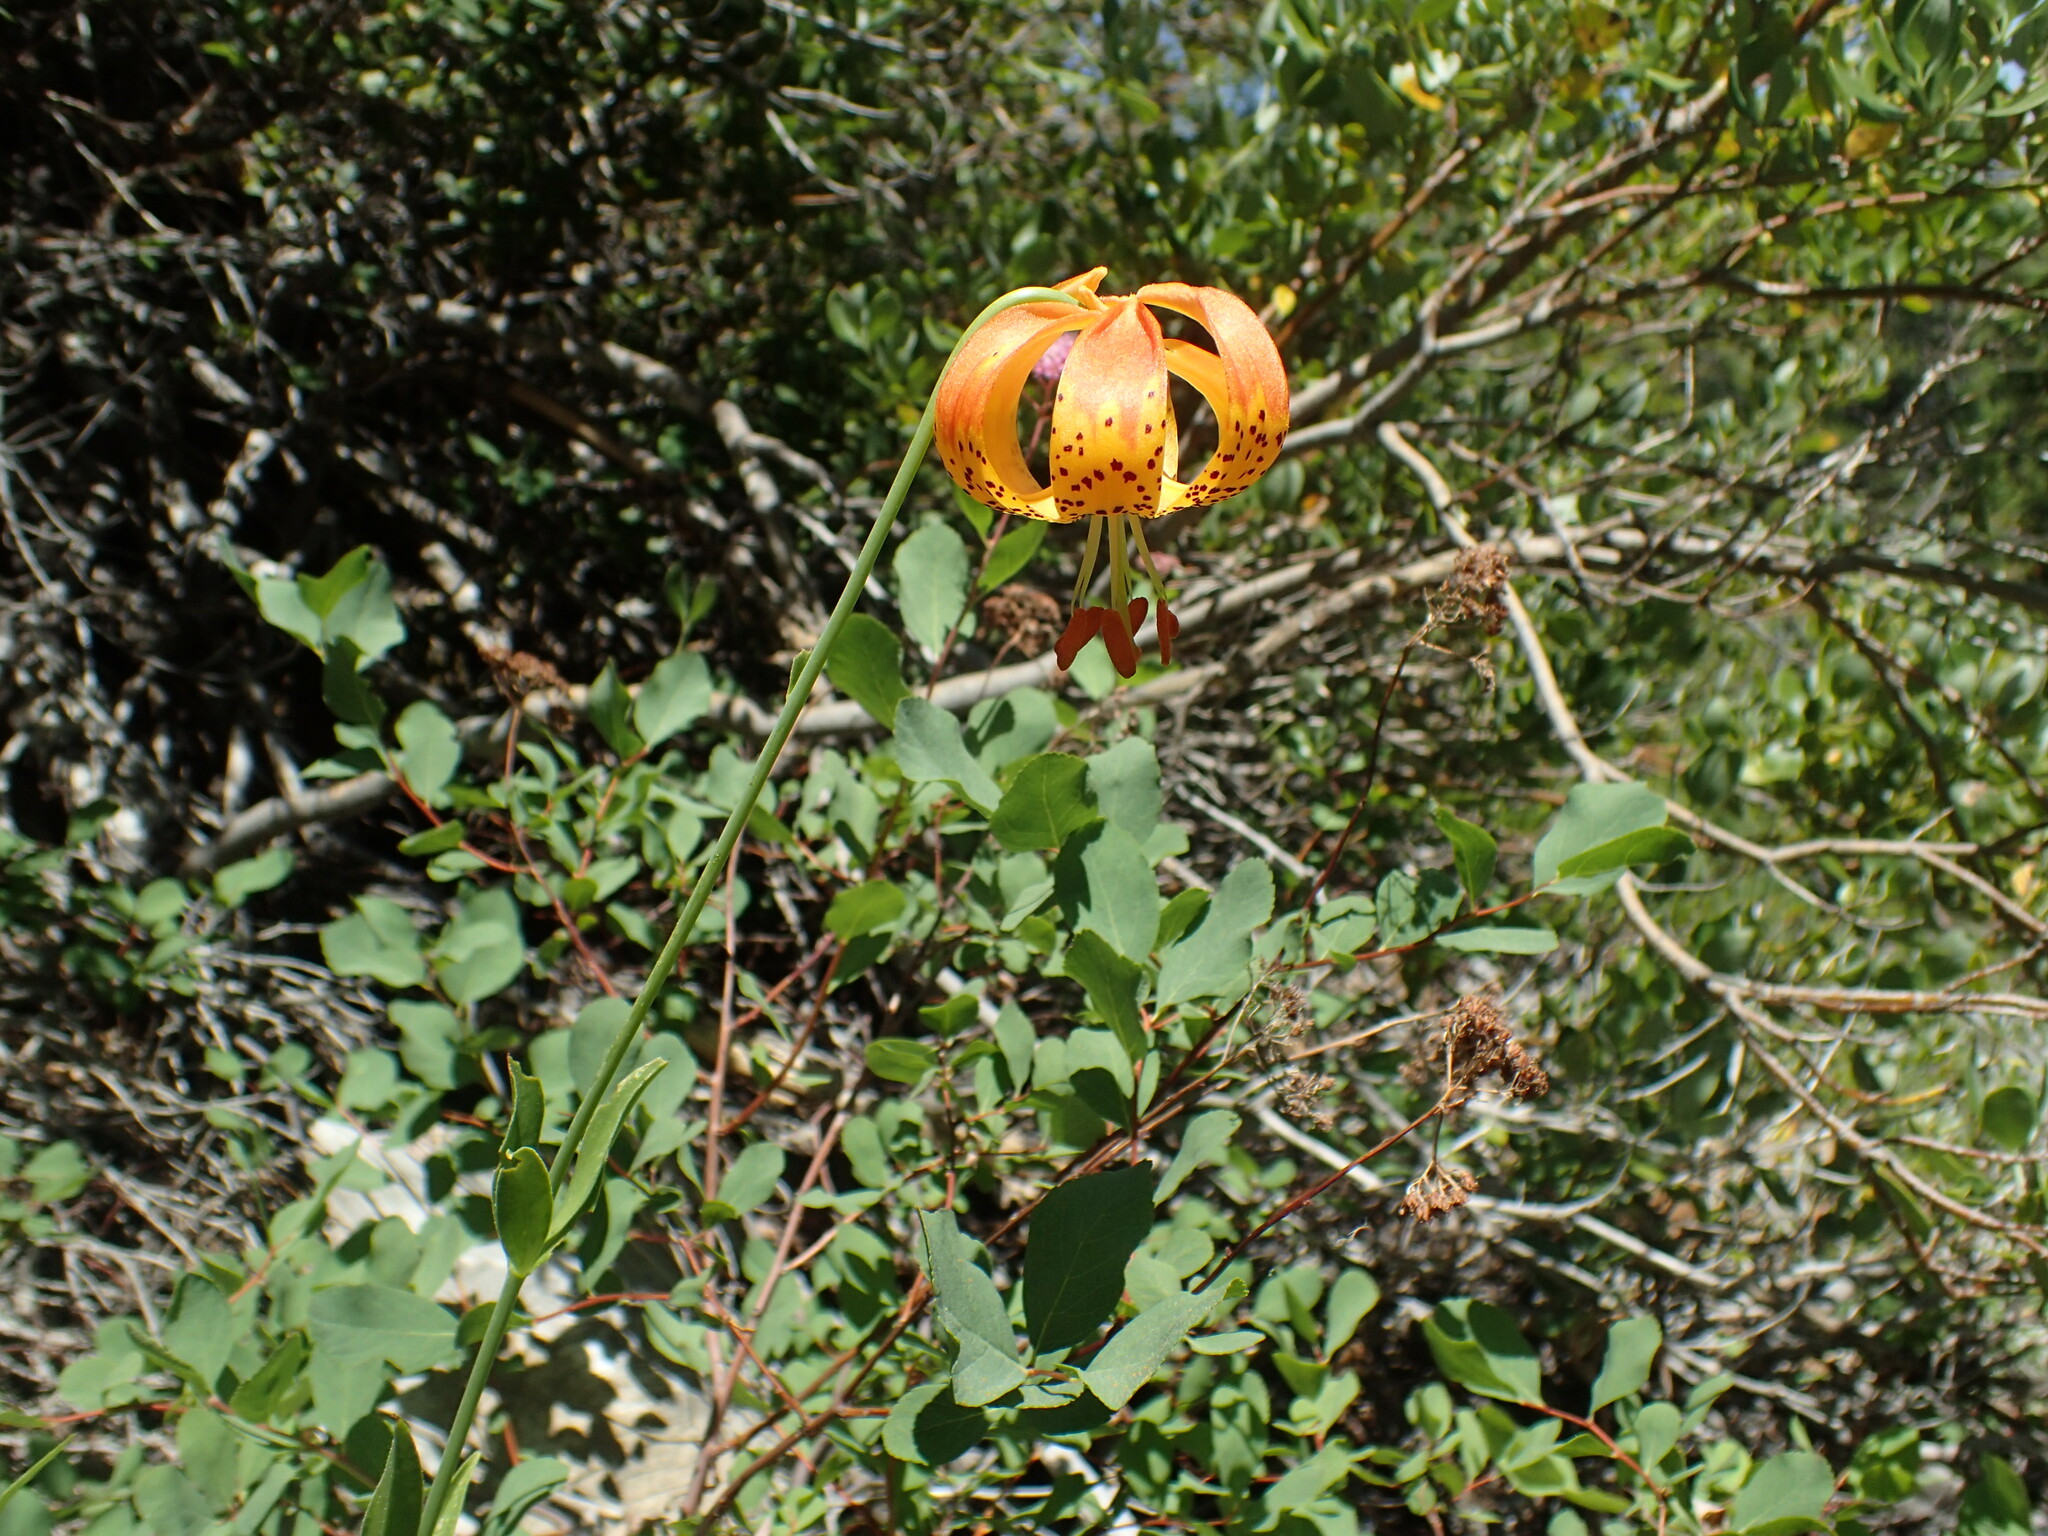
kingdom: Plantae
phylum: Tracheophyta
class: Liliopsida
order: Liliales
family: Liliaceae
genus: Lilium
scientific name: Lilium pardalinum
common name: Panther lily
